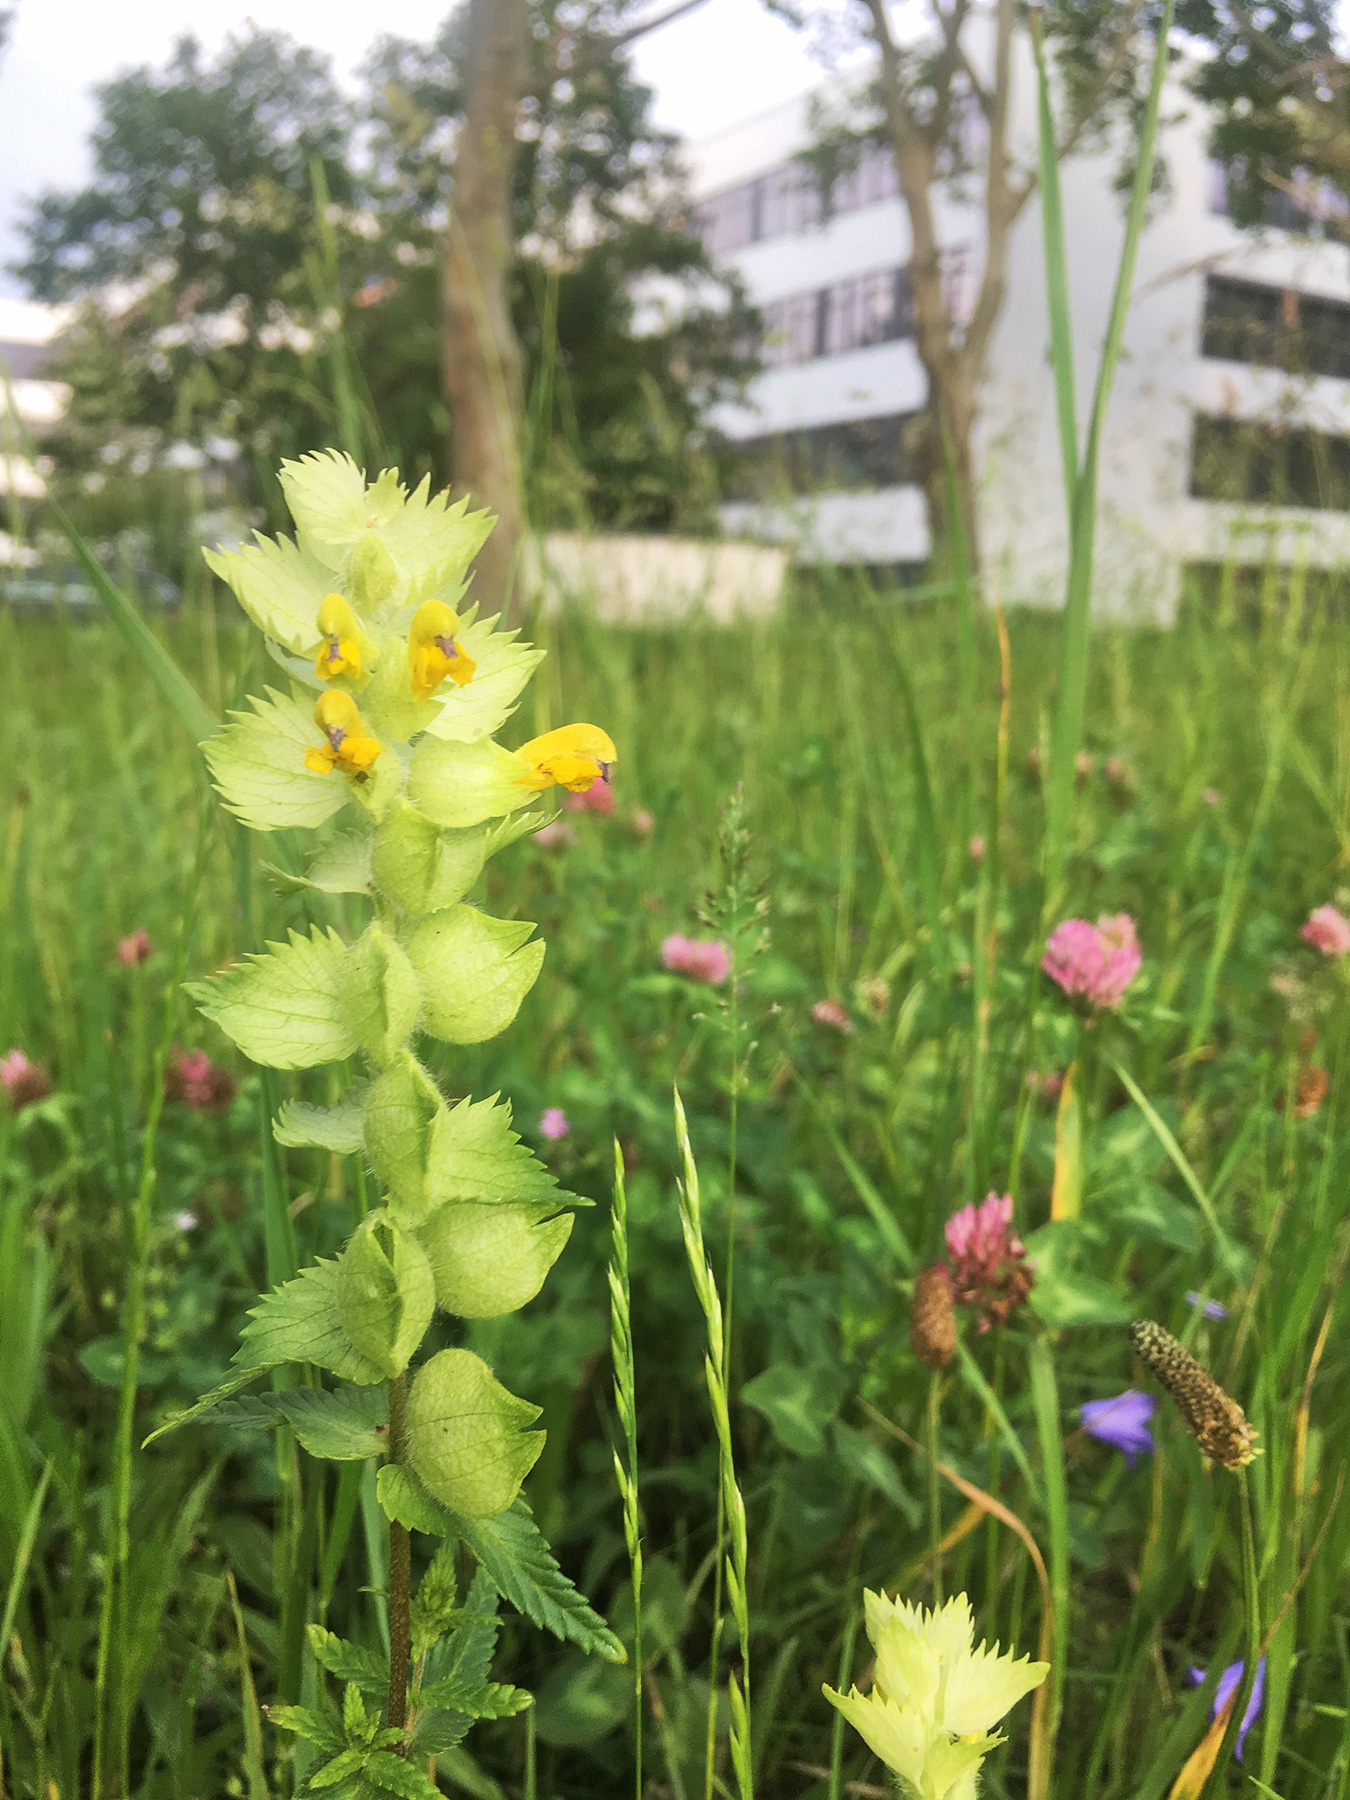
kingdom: Plantae
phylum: Tracheophyta
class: Magnoliopsida
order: Lamiales
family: Orobanchaceae
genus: Rhinanthus
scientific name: Rhinanthus alectorolophus
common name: Greater yellow-rattle
